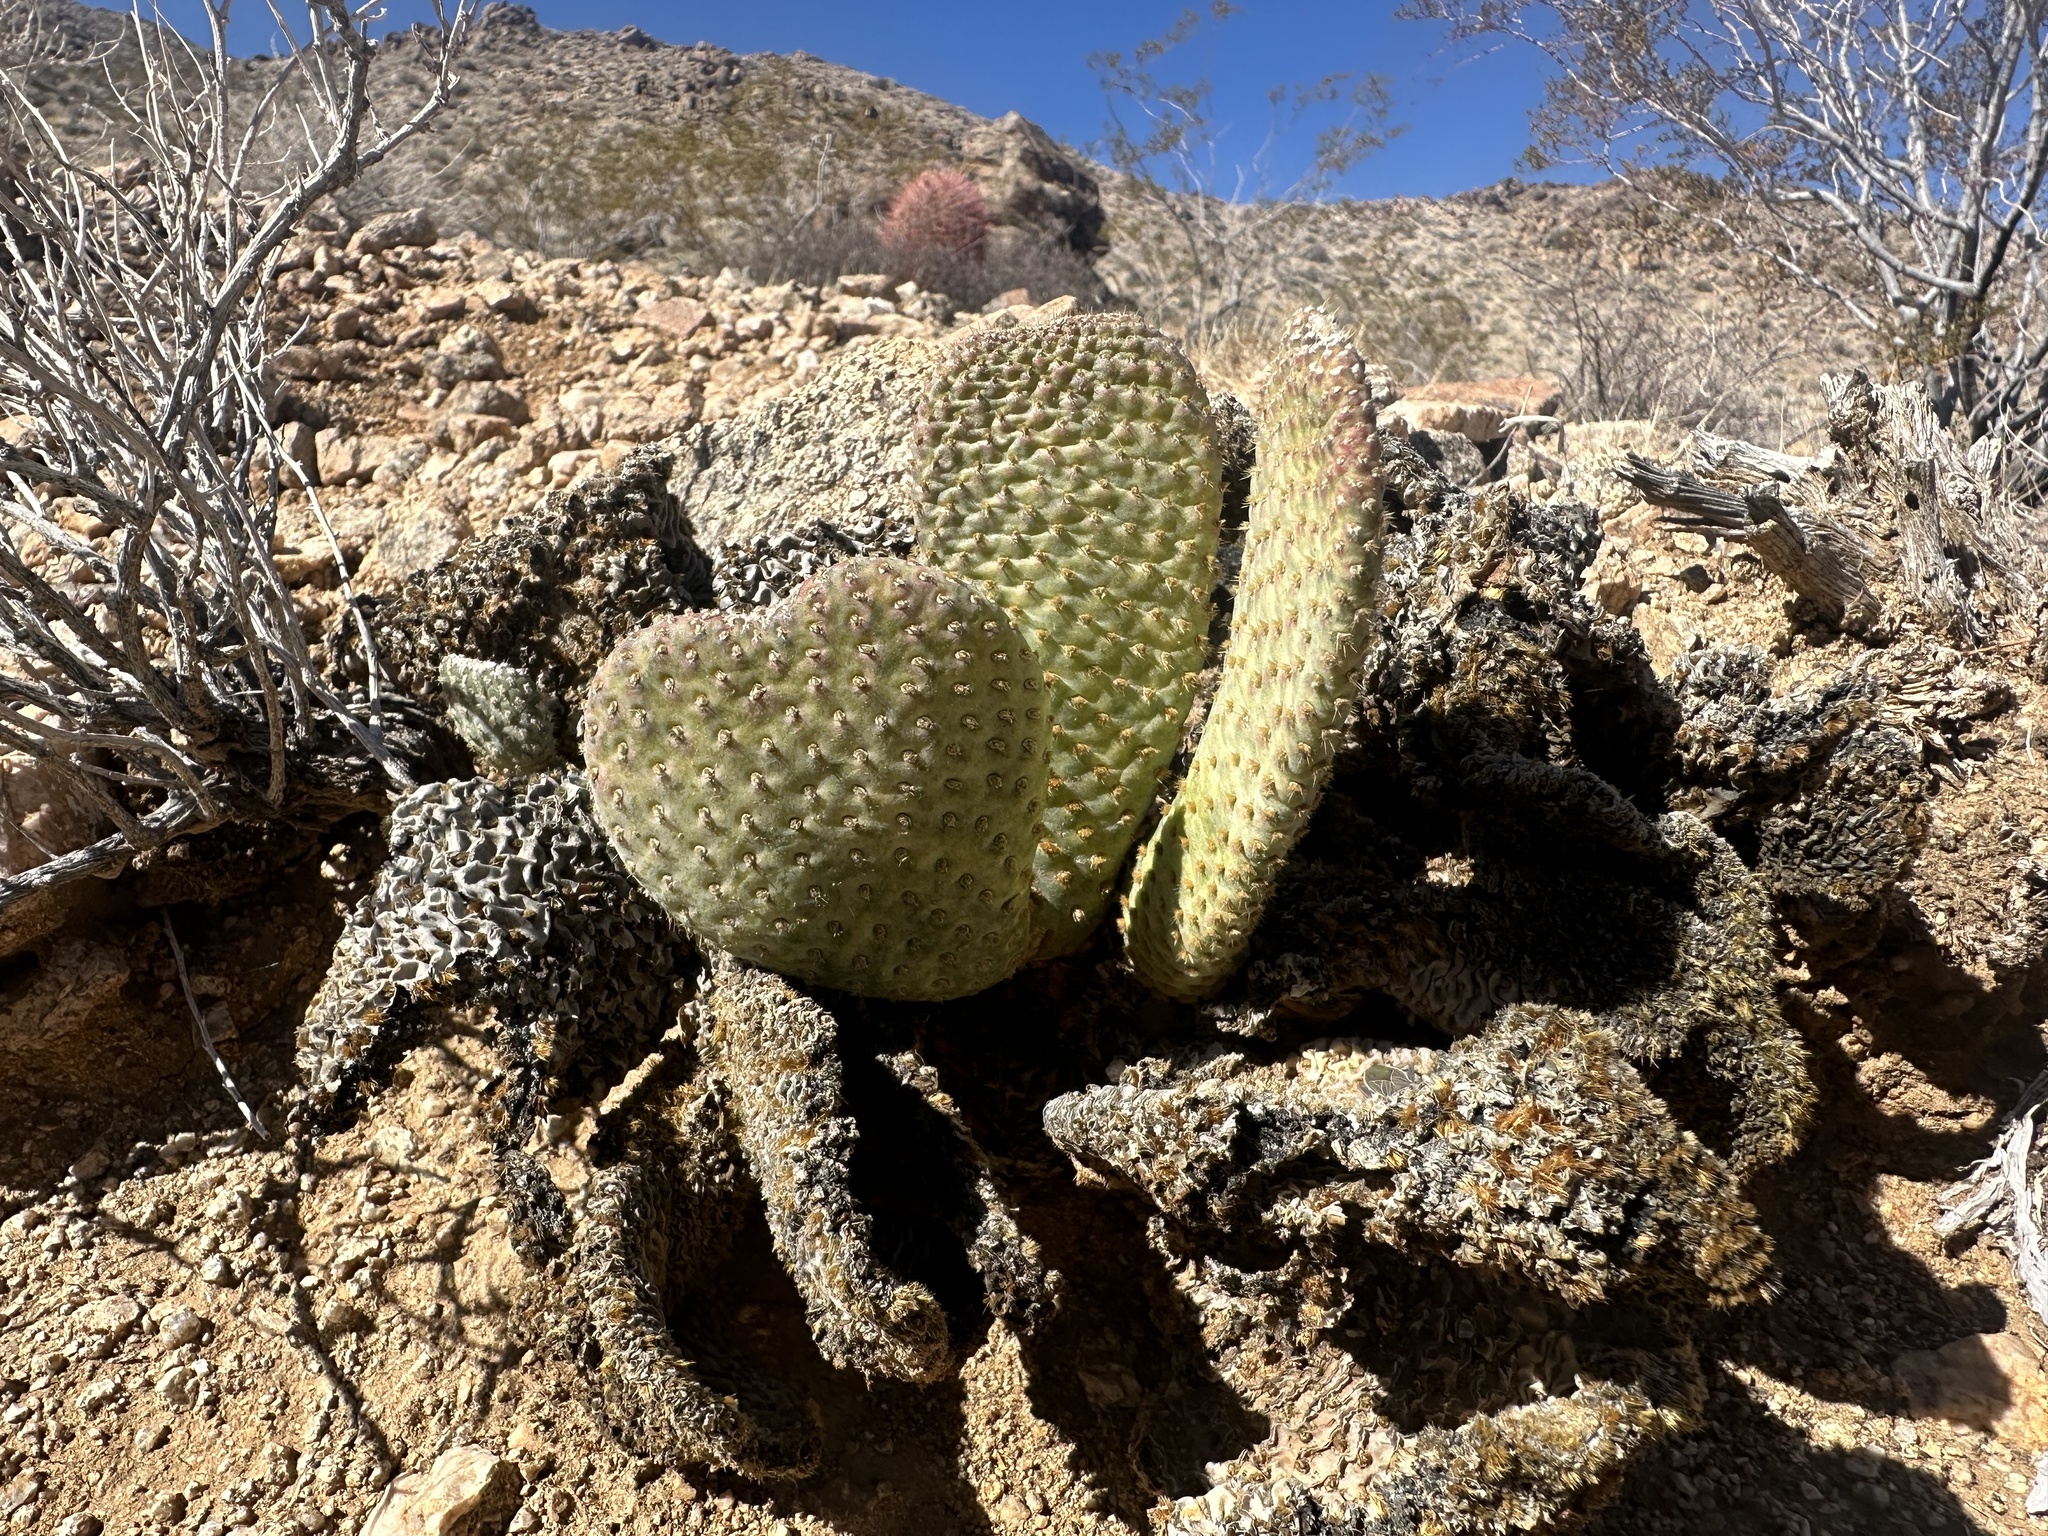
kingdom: Plantae
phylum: Tracheophyta
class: Magnoliopsida
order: Caryophyllales
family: Cactaceae
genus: Opuntia
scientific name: Opuntia basilaris
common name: Beavertail prickly-pear
